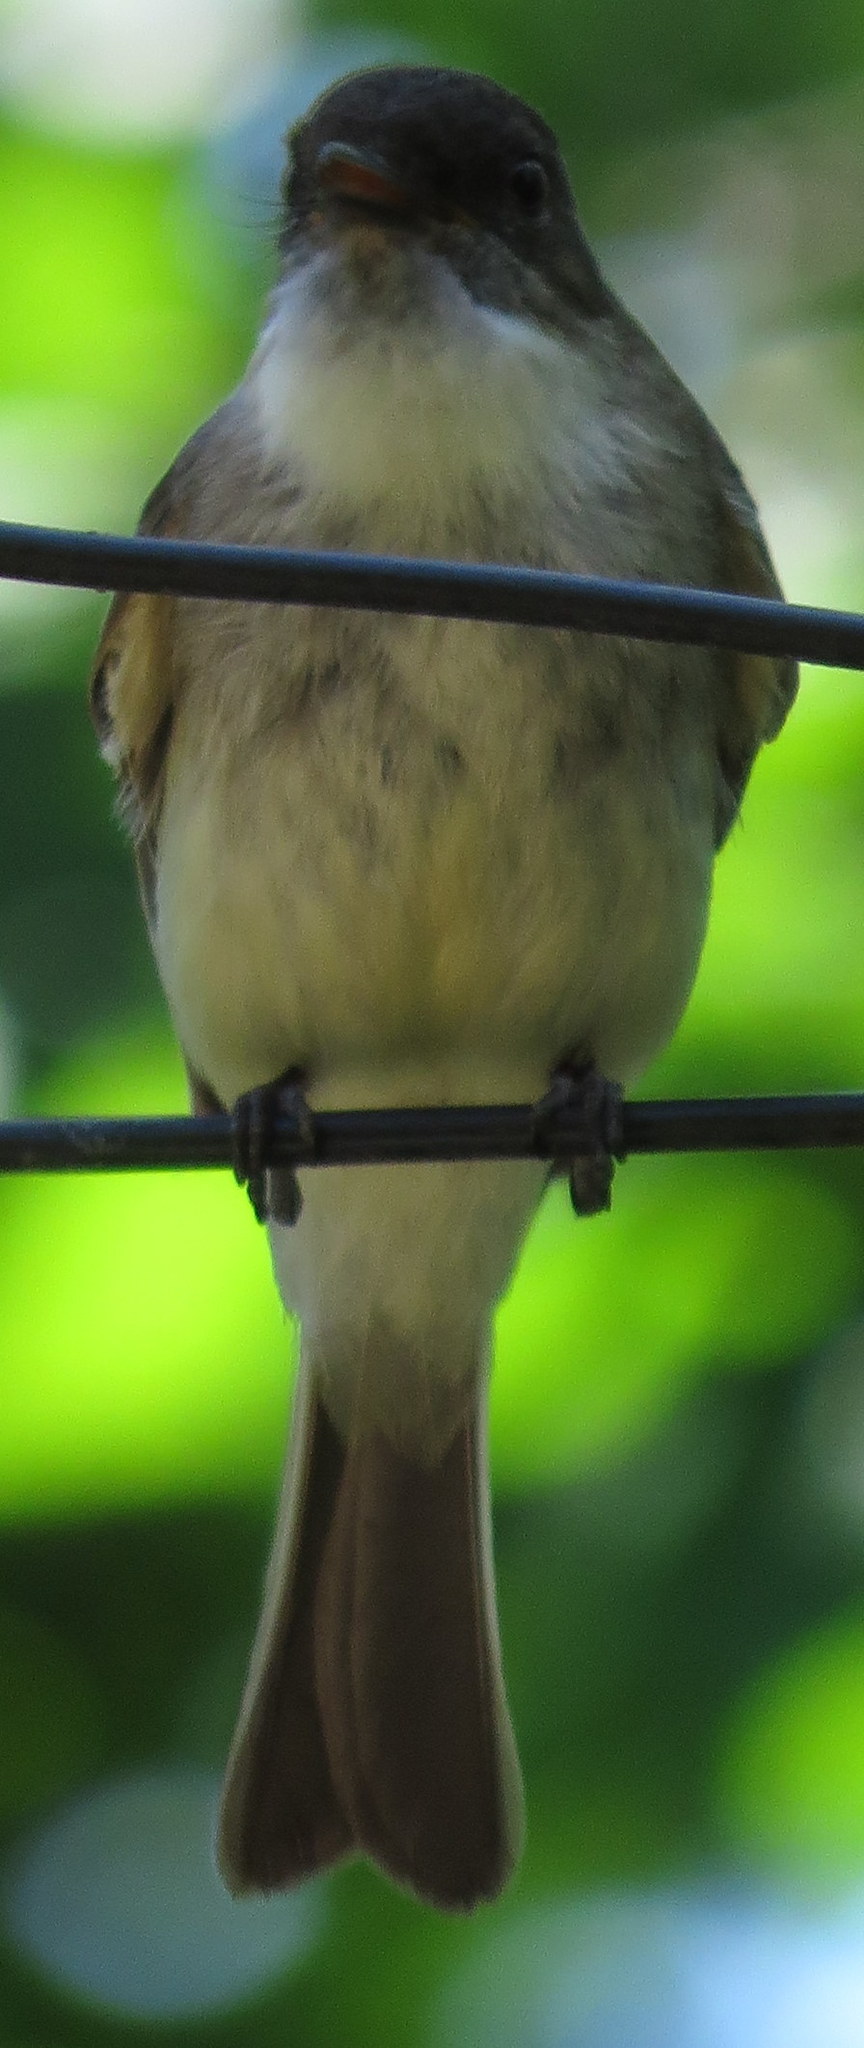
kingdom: Animalia
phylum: Chordata
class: Aves
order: Passeriformes
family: Tyrannidae
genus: Sayornis
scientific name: Sayornis phoebe
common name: Eastern phoebe
